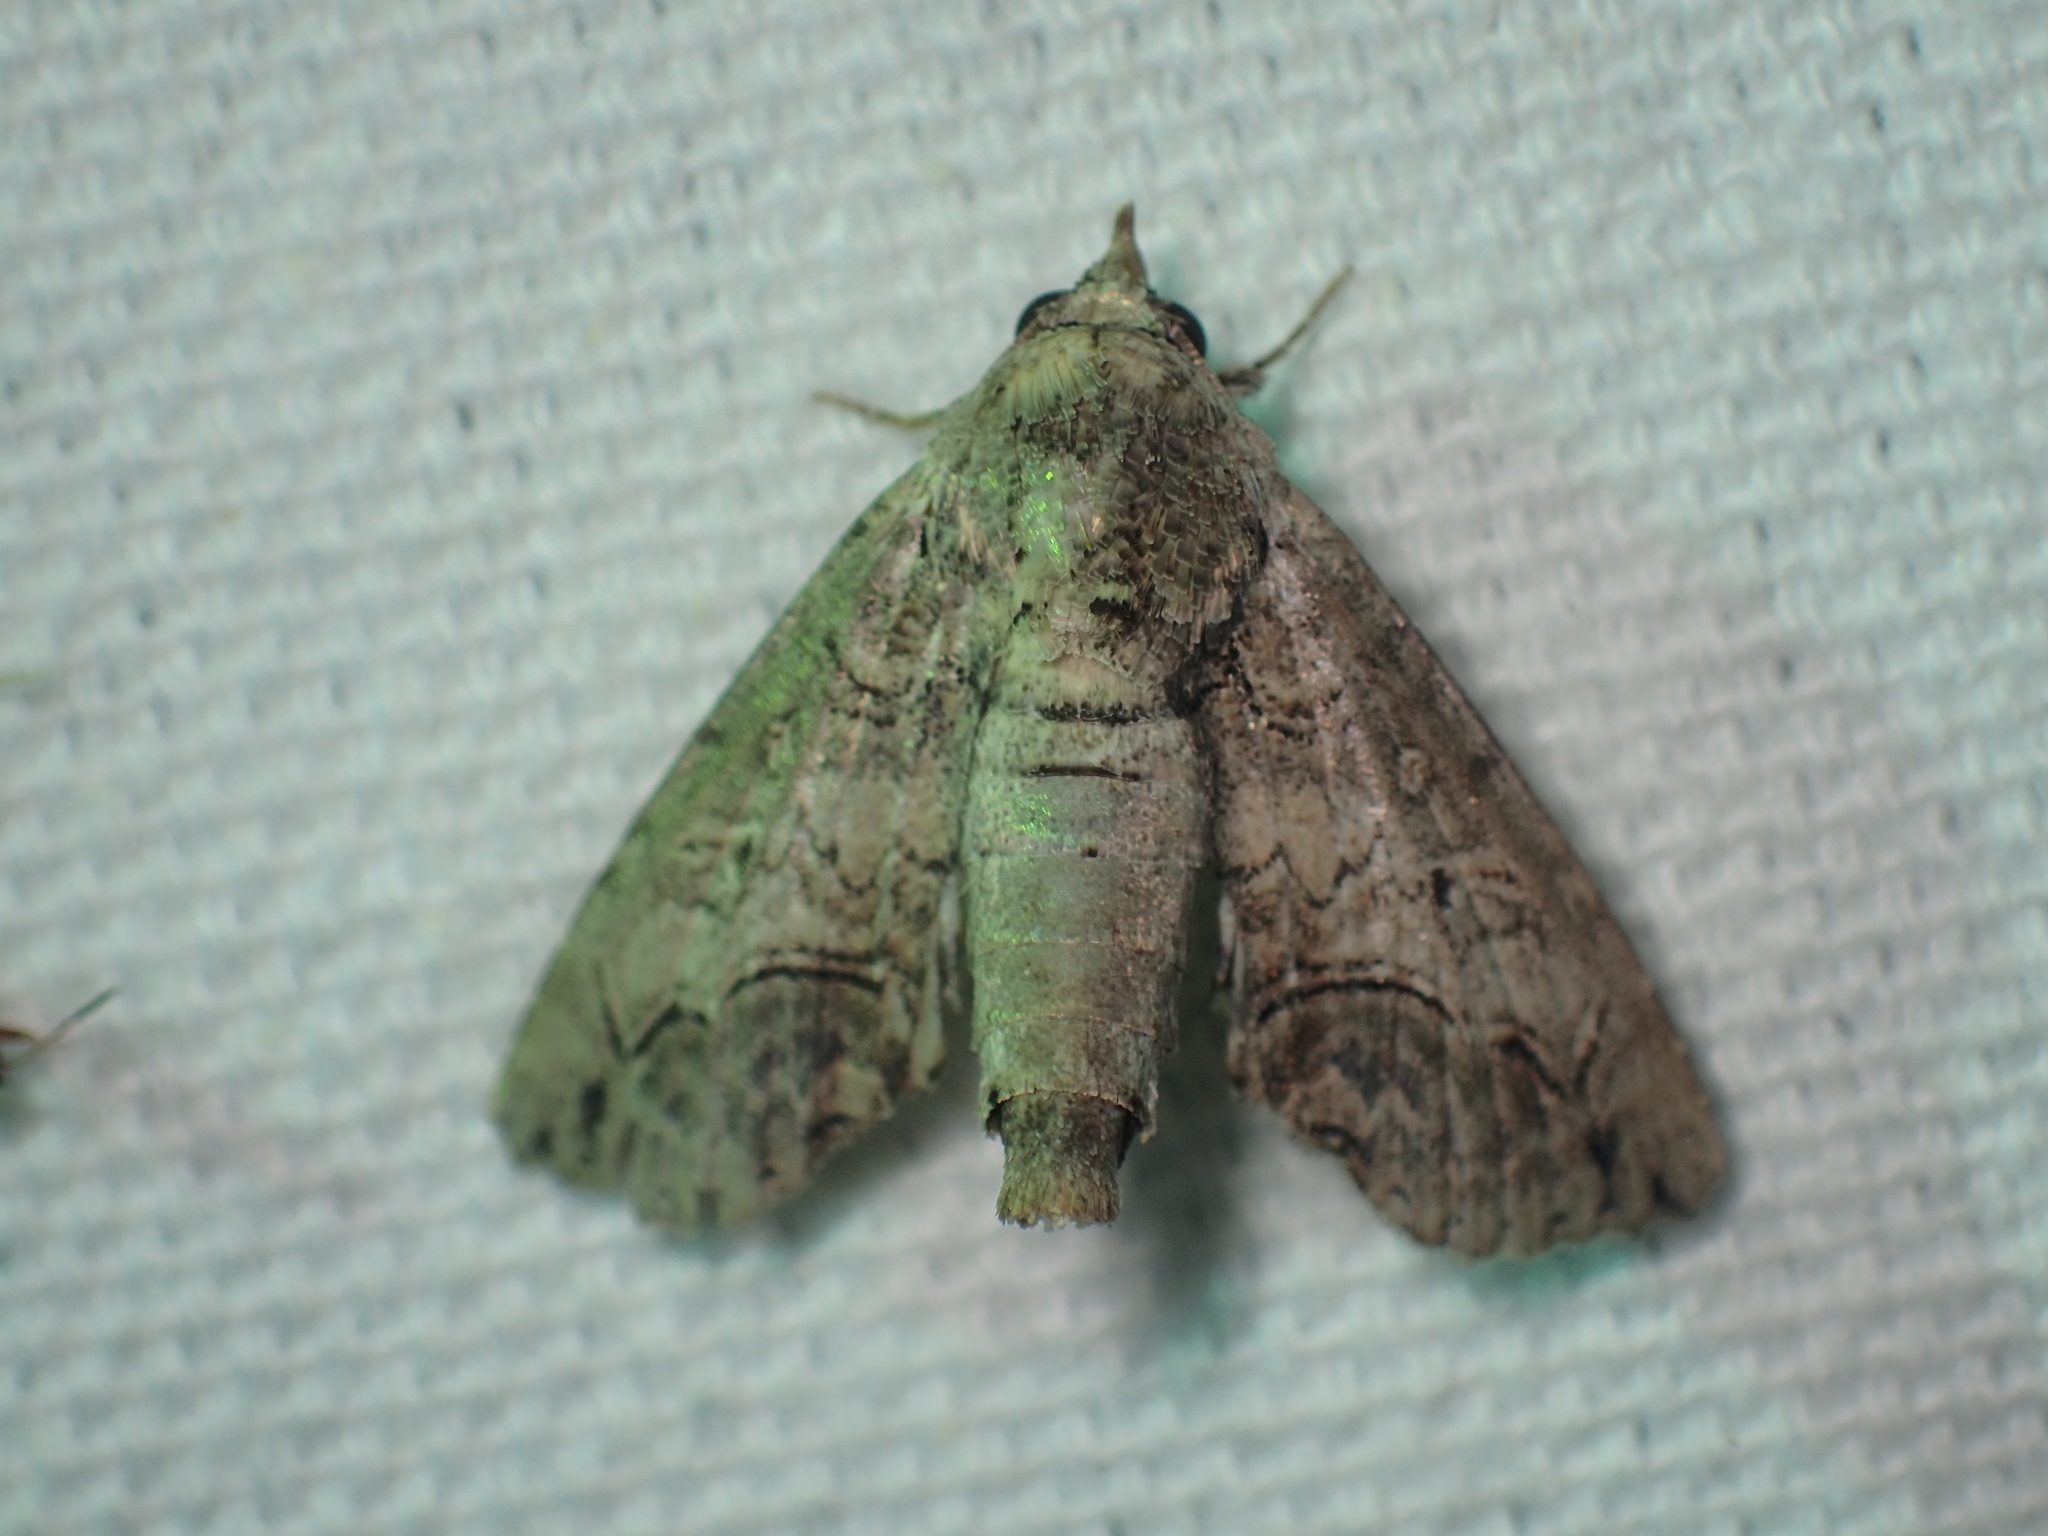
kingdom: Animalia
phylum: Arthropoda
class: Insecta
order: Lepidoptera
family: Euteliidae
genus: Paectes
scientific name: Paectes abrostoloides
